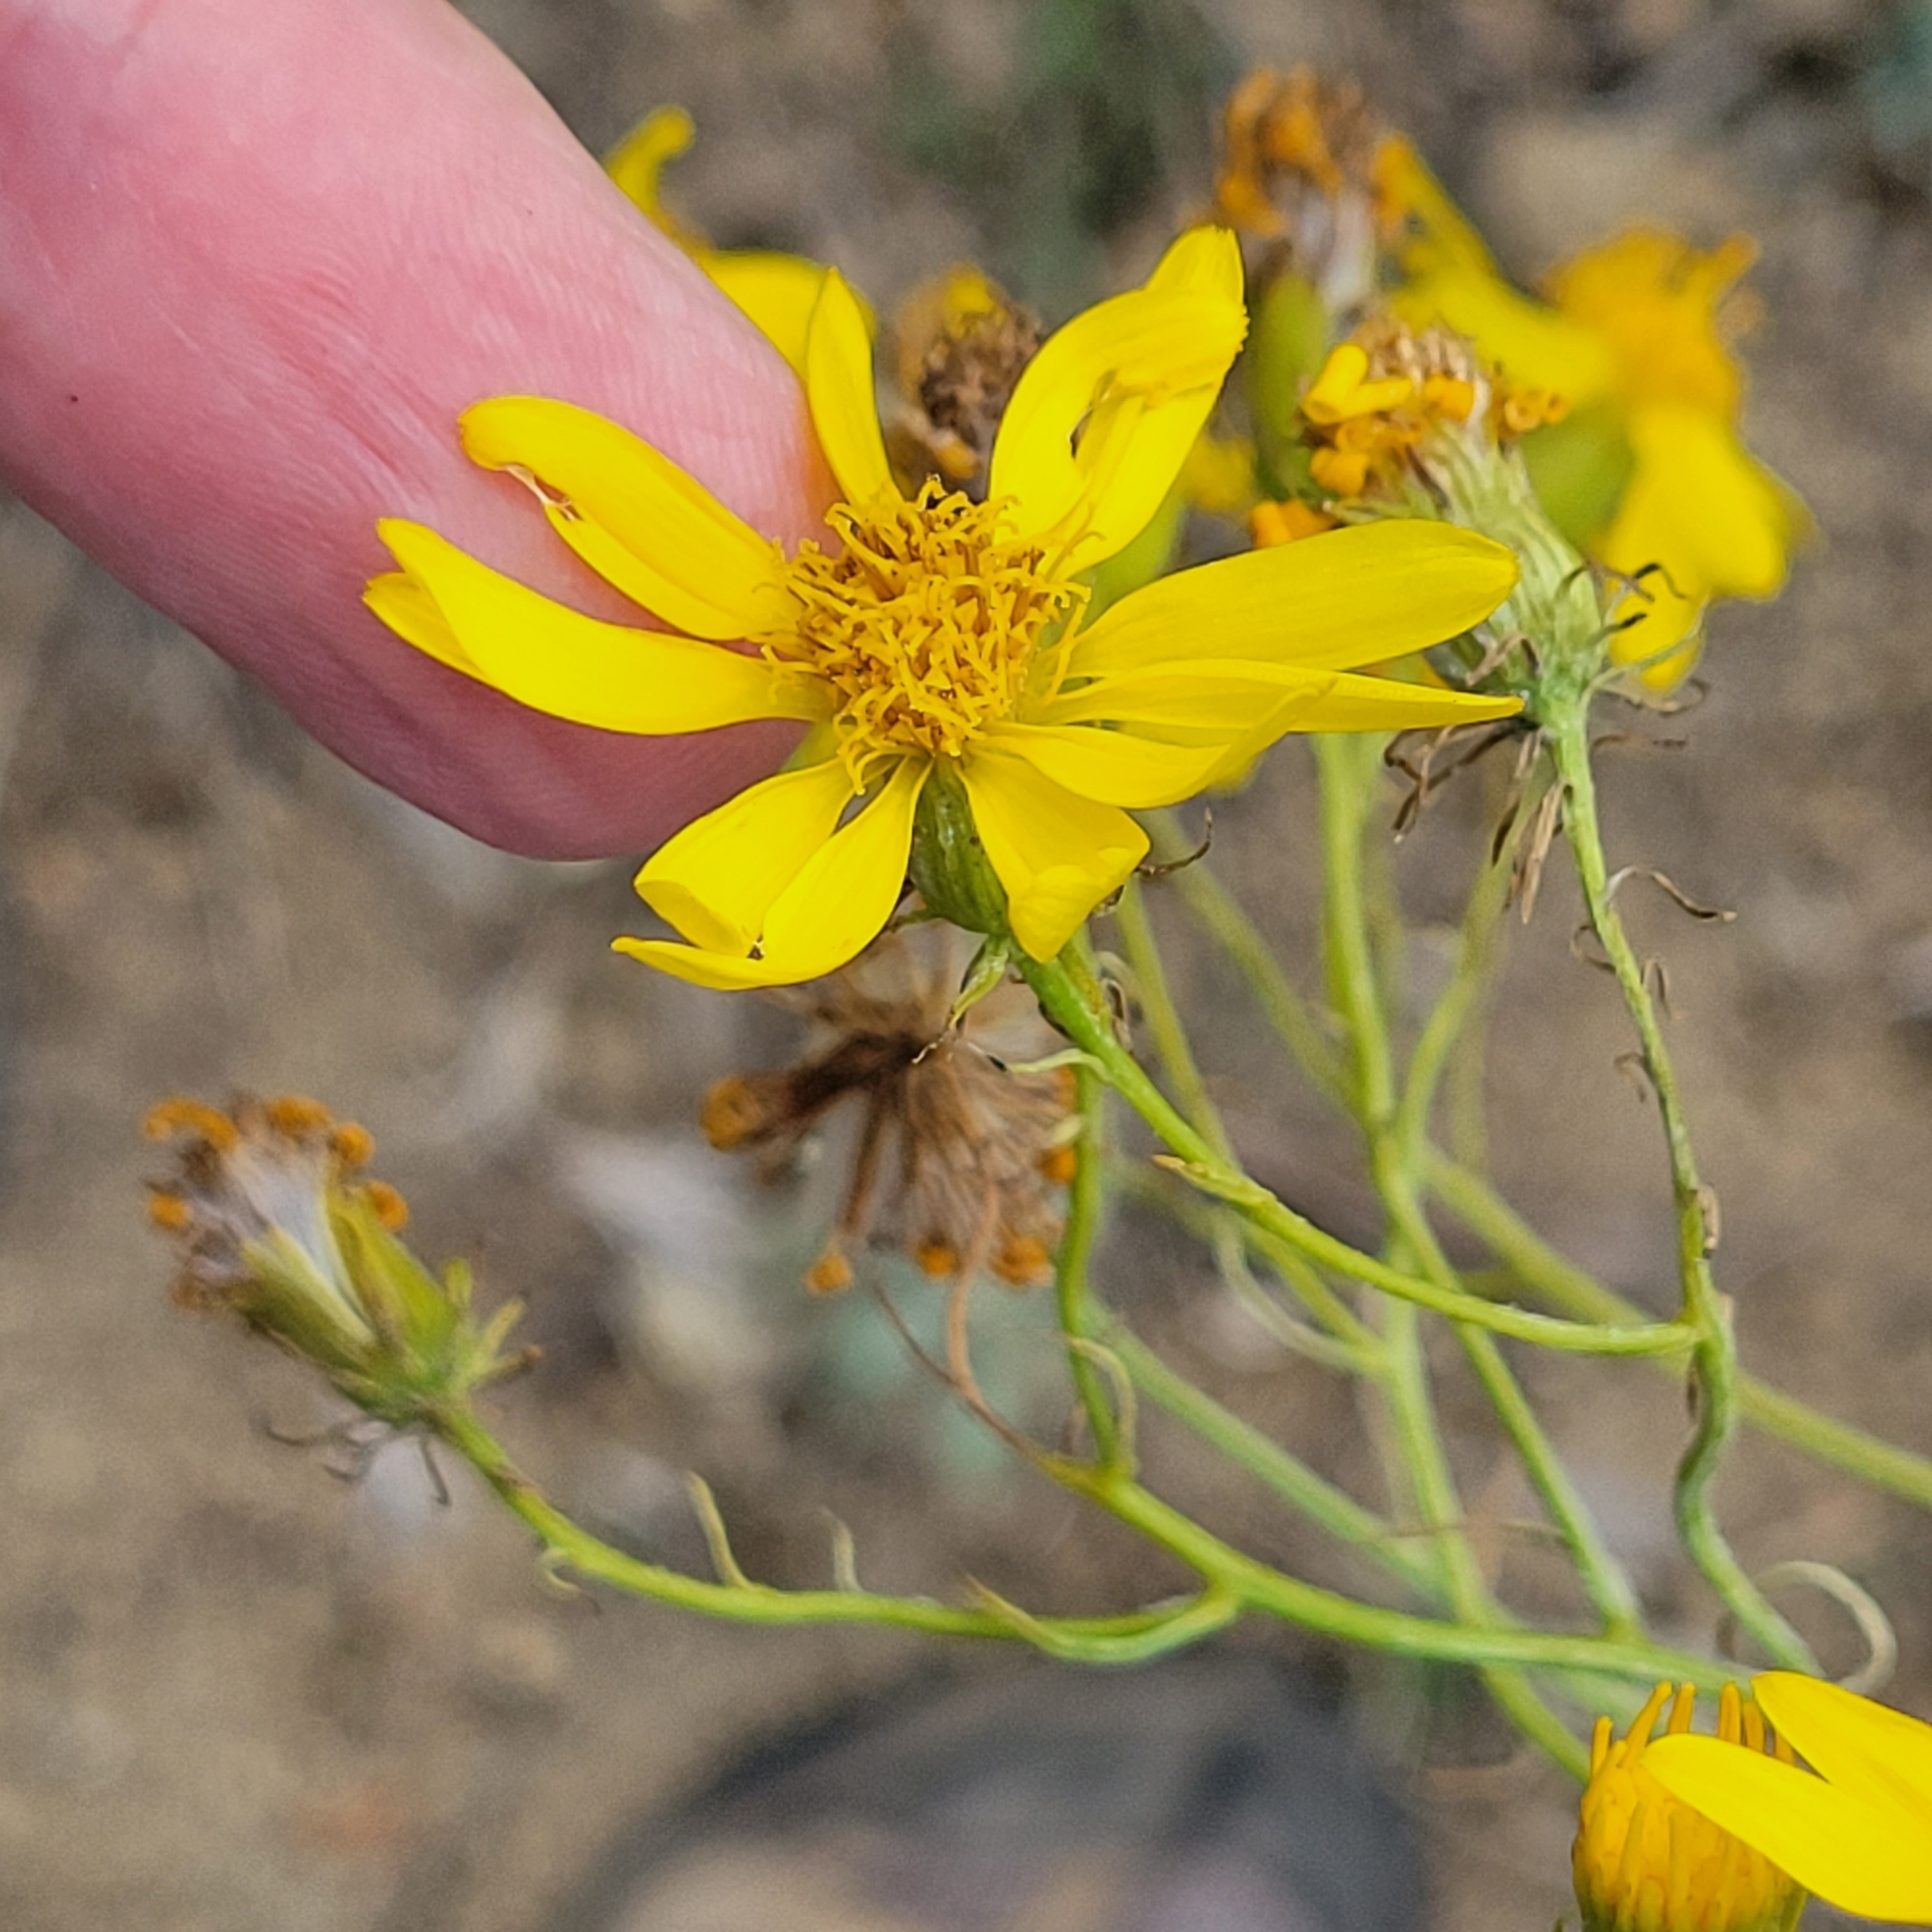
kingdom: Plantae
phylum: Tracheophyta
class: Magnoliopsida
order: Asterales
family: Asteraceae
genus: Senecio
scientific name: Senecio flaccidus
